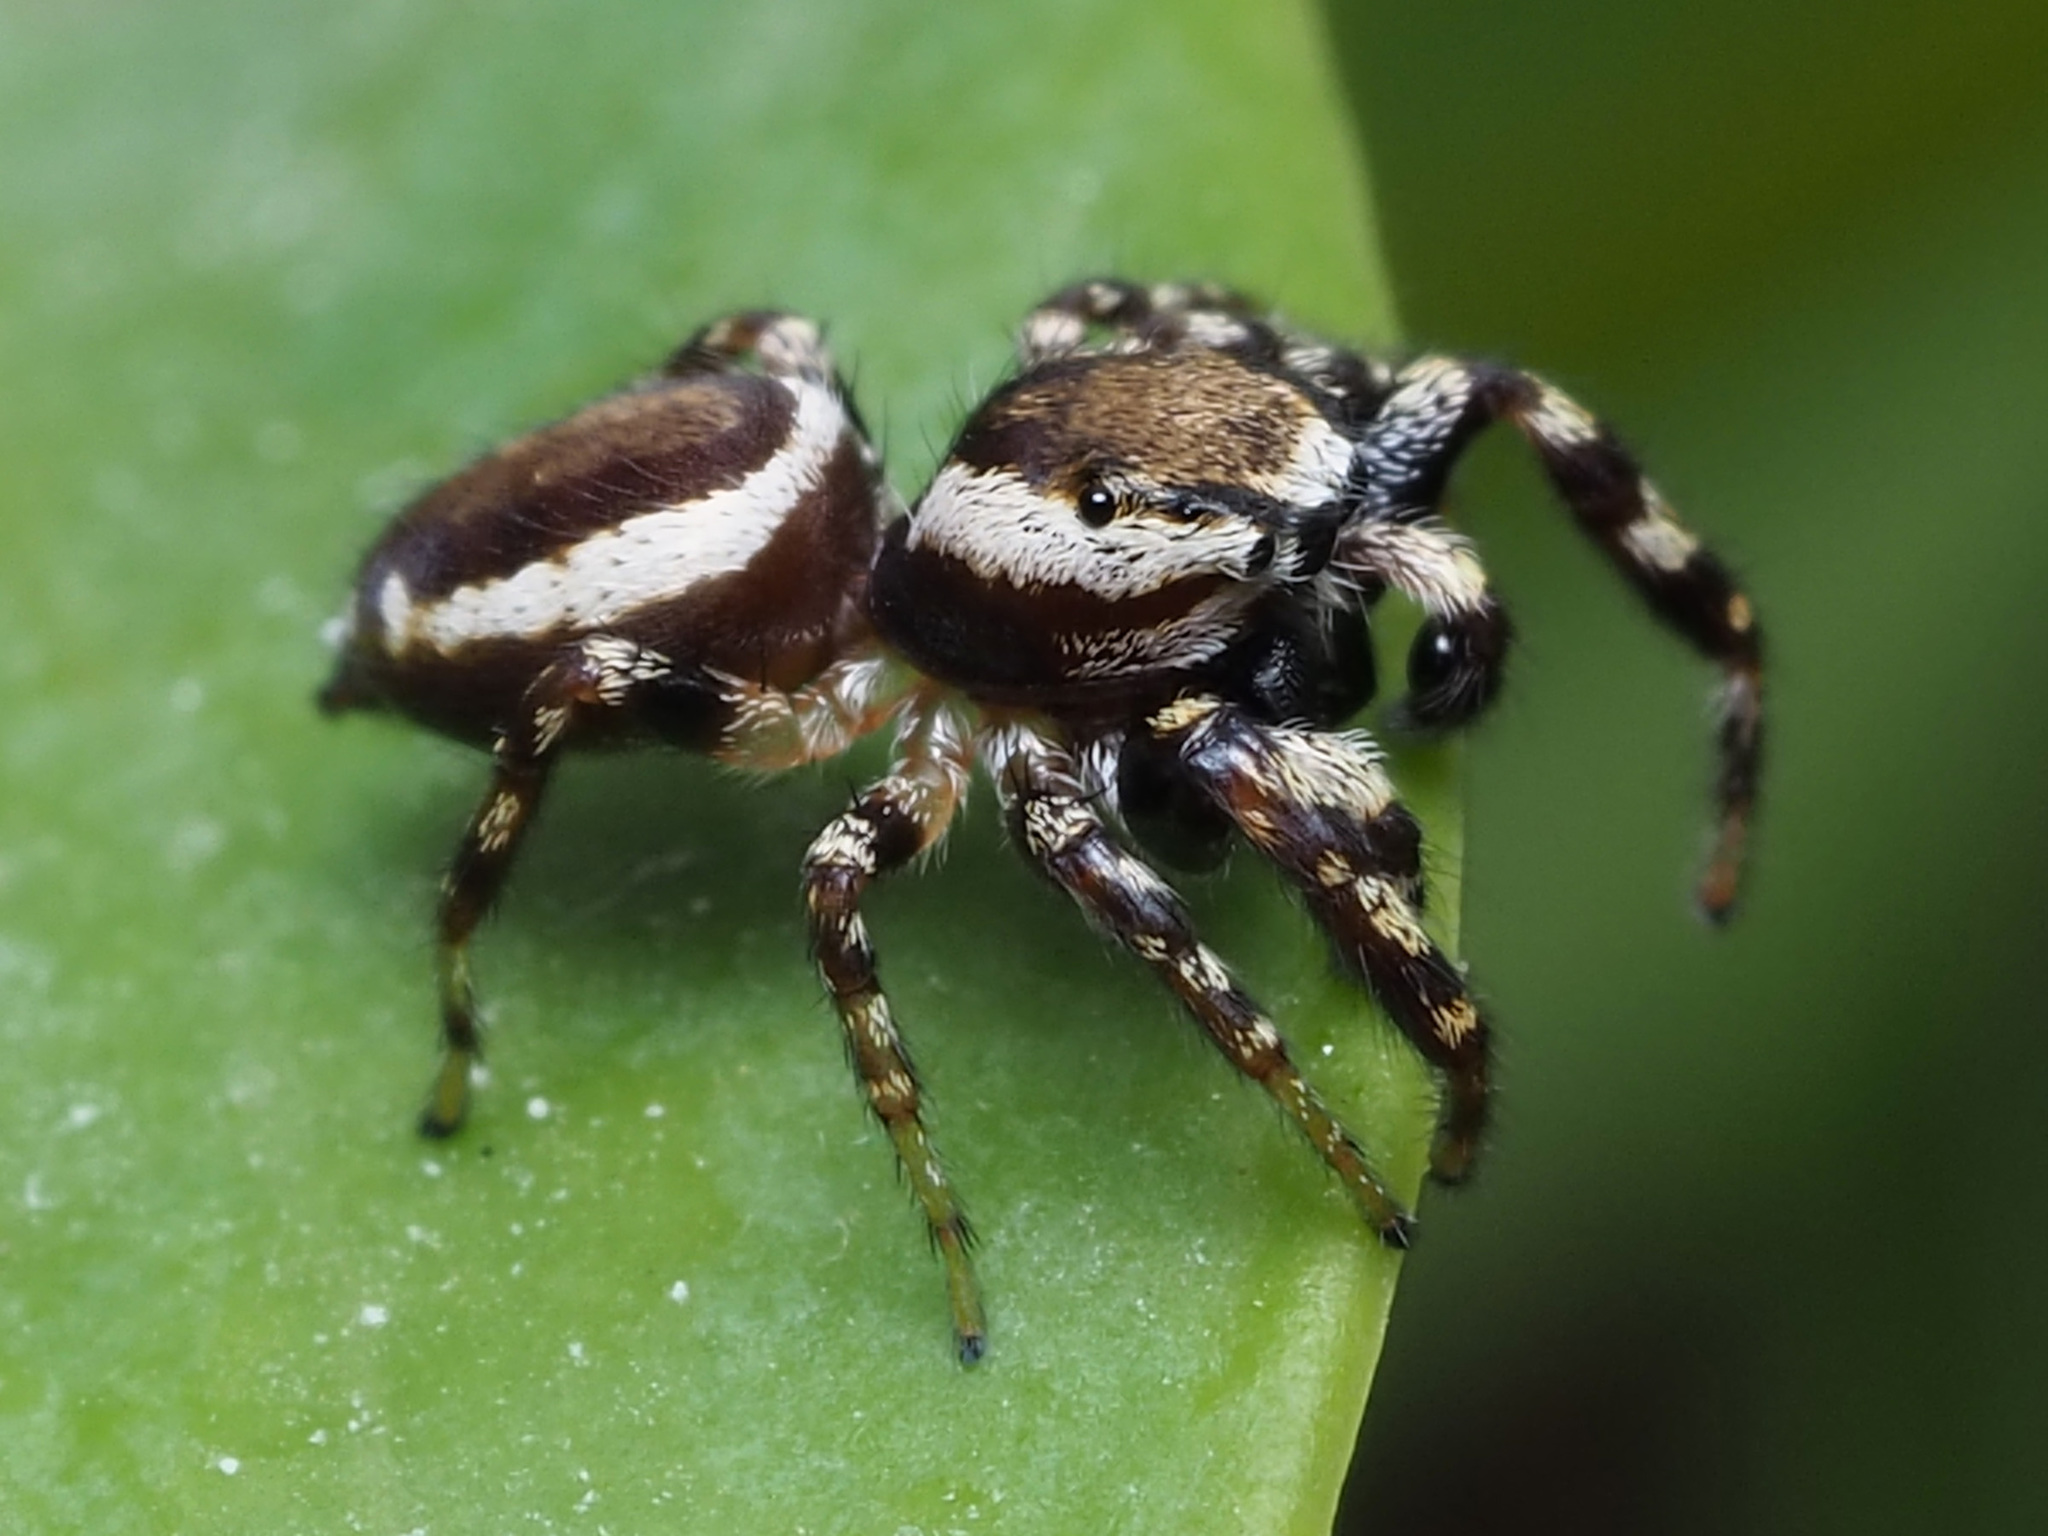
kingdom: Animalia
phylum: Arthropoda
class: Arachnida
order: Araneae
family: Salticidae
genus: Pelegrina
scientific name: Pelegrina proterva
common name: Common white-cheeked jumping spider
